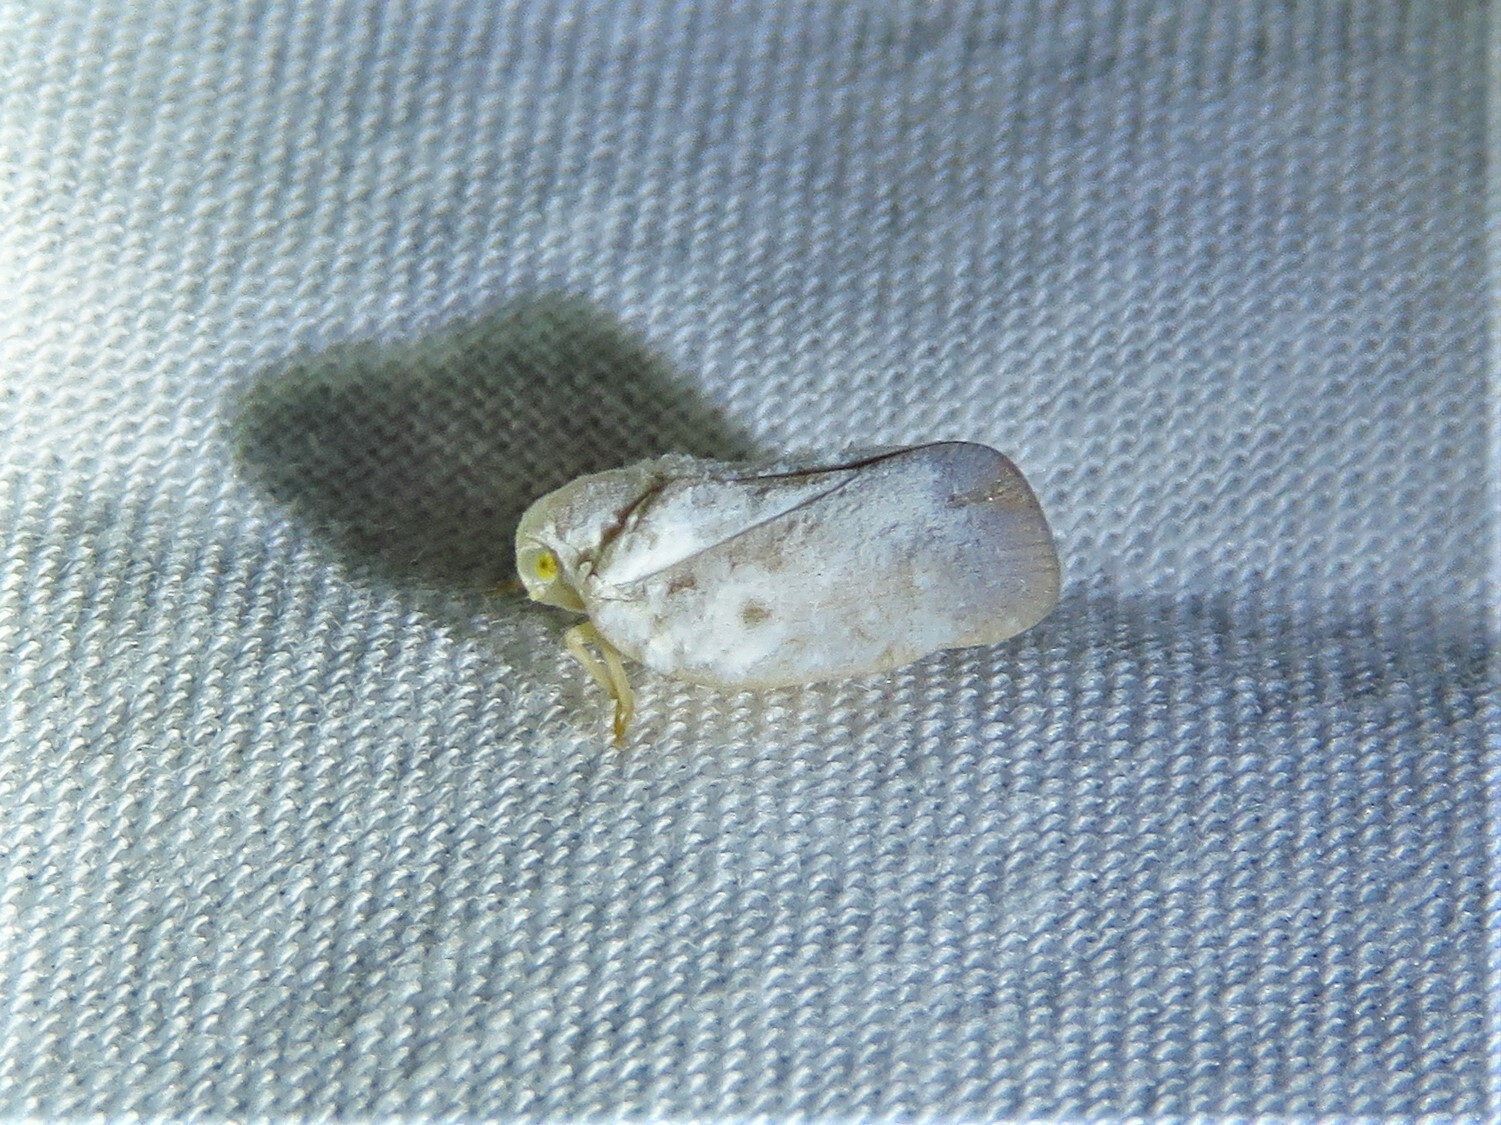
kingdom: Animalia
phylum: Arthropoda
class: Insecta
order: Hemiptera
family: Flatidae
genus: Metcalfa
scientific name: Metcalfa pruinosa
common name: Citrus flatid planthopper
